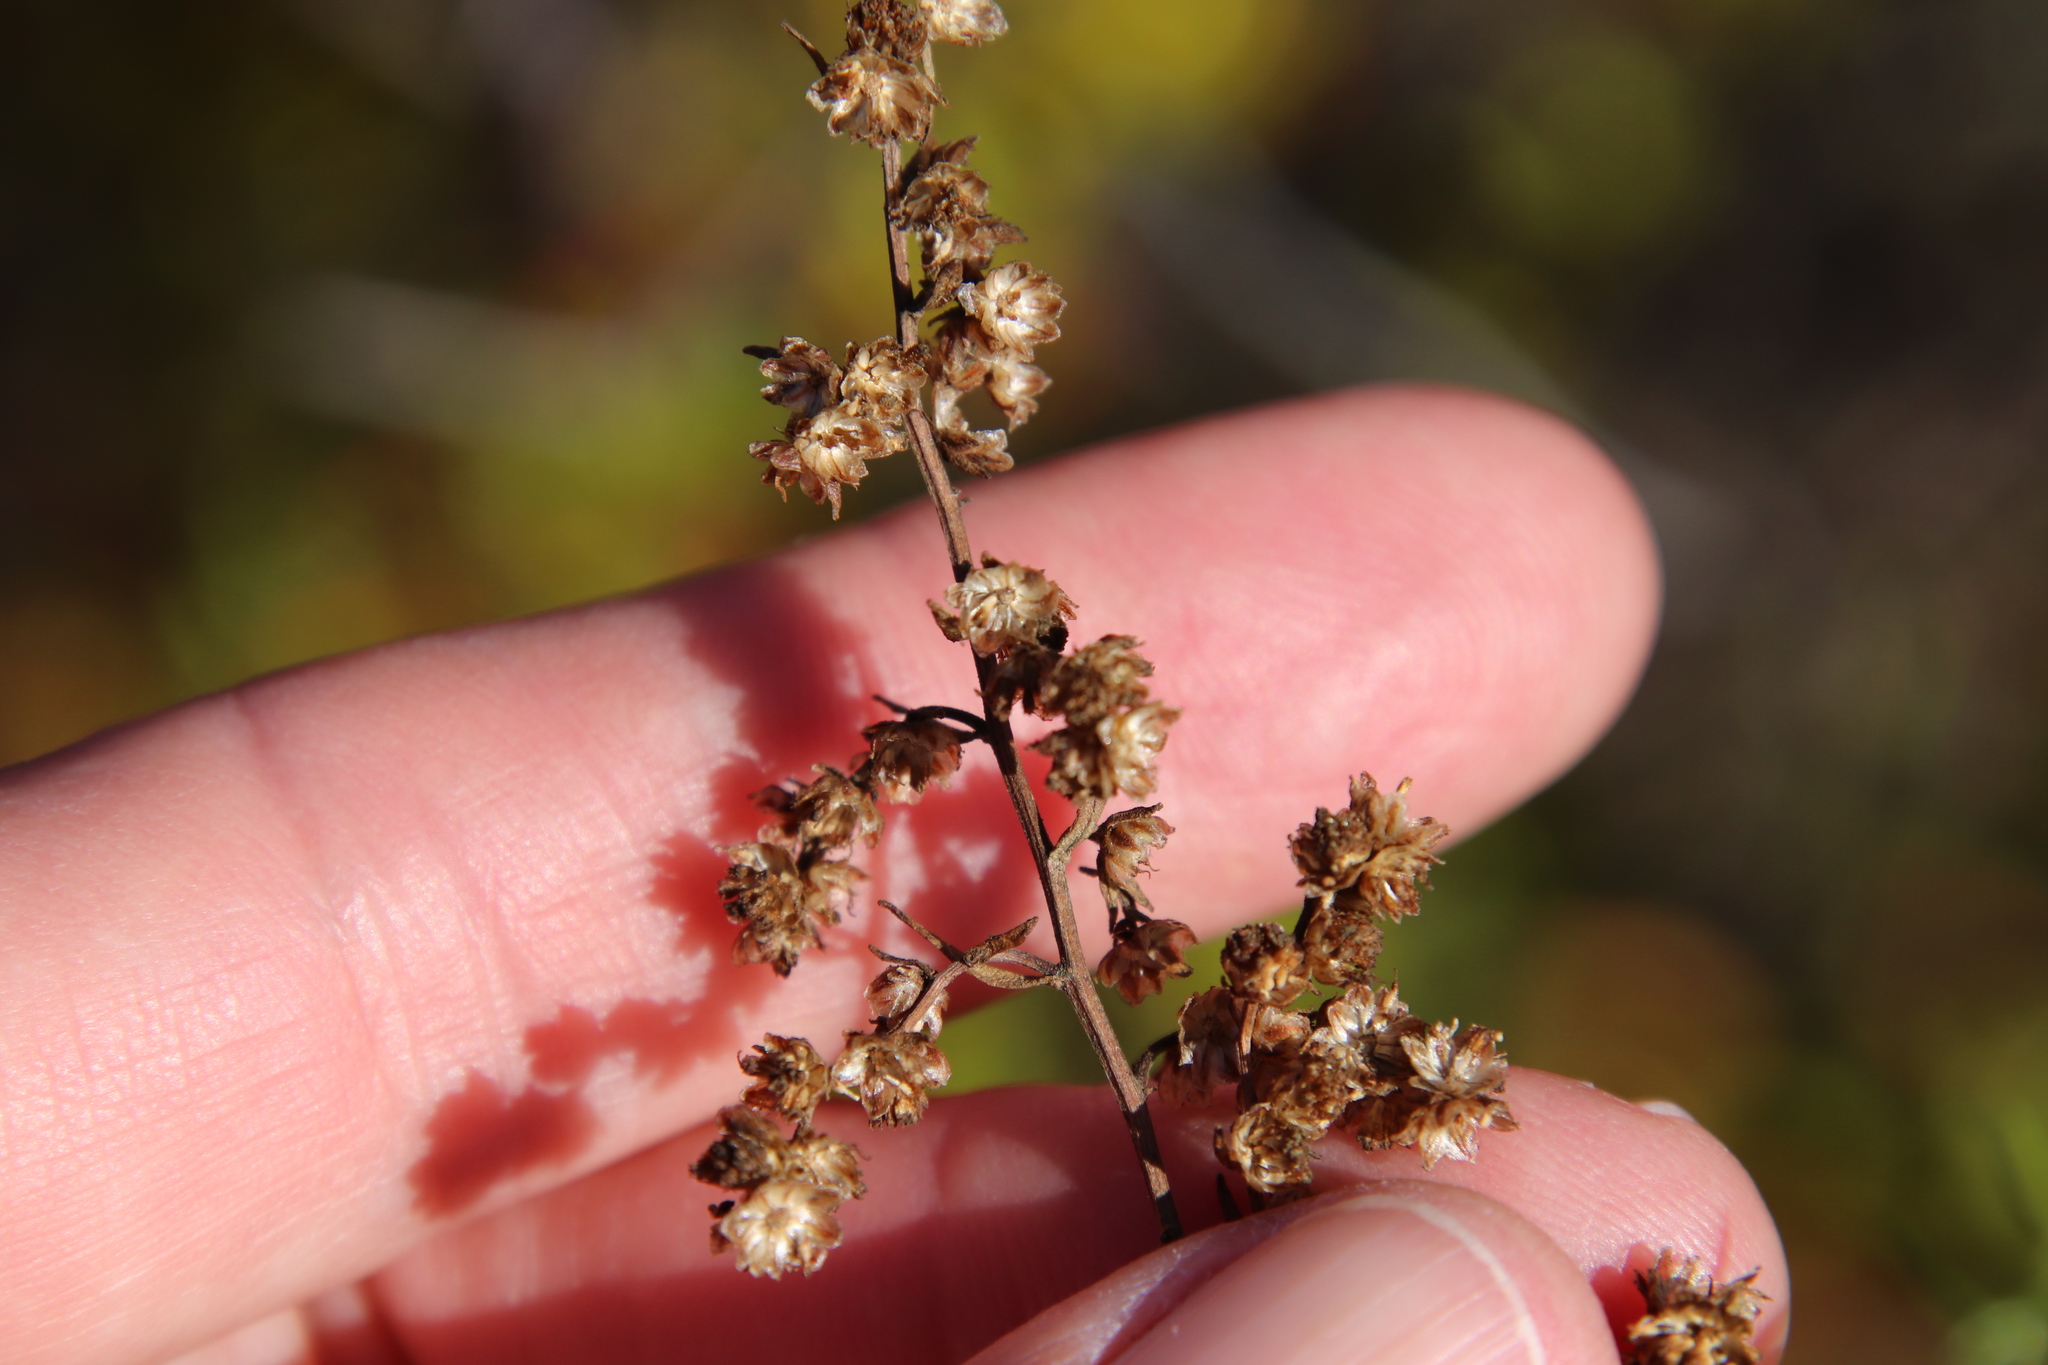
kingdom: Plantae
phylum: Tracheophyta
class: Magnoliopsida
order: Asterales
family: Asteraceae
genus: Artemisia
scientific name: Artemisia dracunculus
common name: Tarragon
